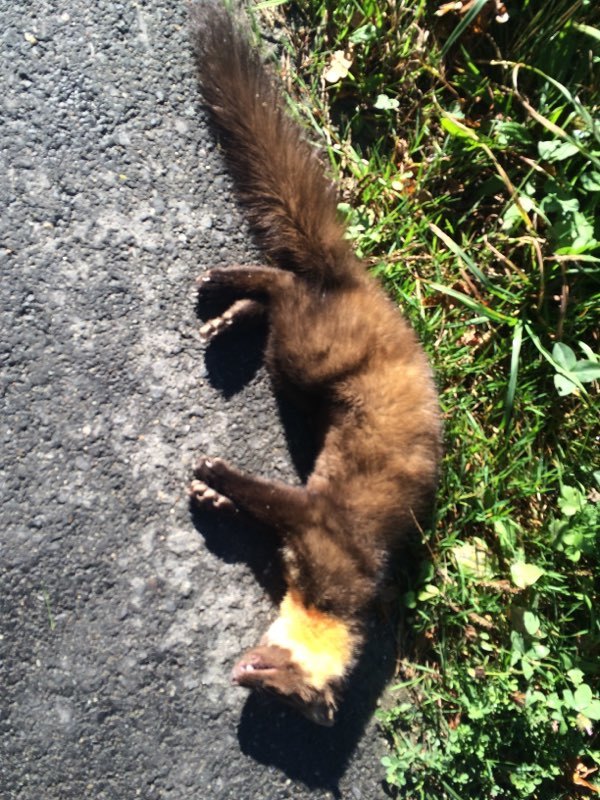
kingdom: Animalia
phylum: Chordata
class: Mammalia
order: Carnivora
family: Mustelidae
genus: Martes
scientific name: Martes martes
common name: European pine marten
